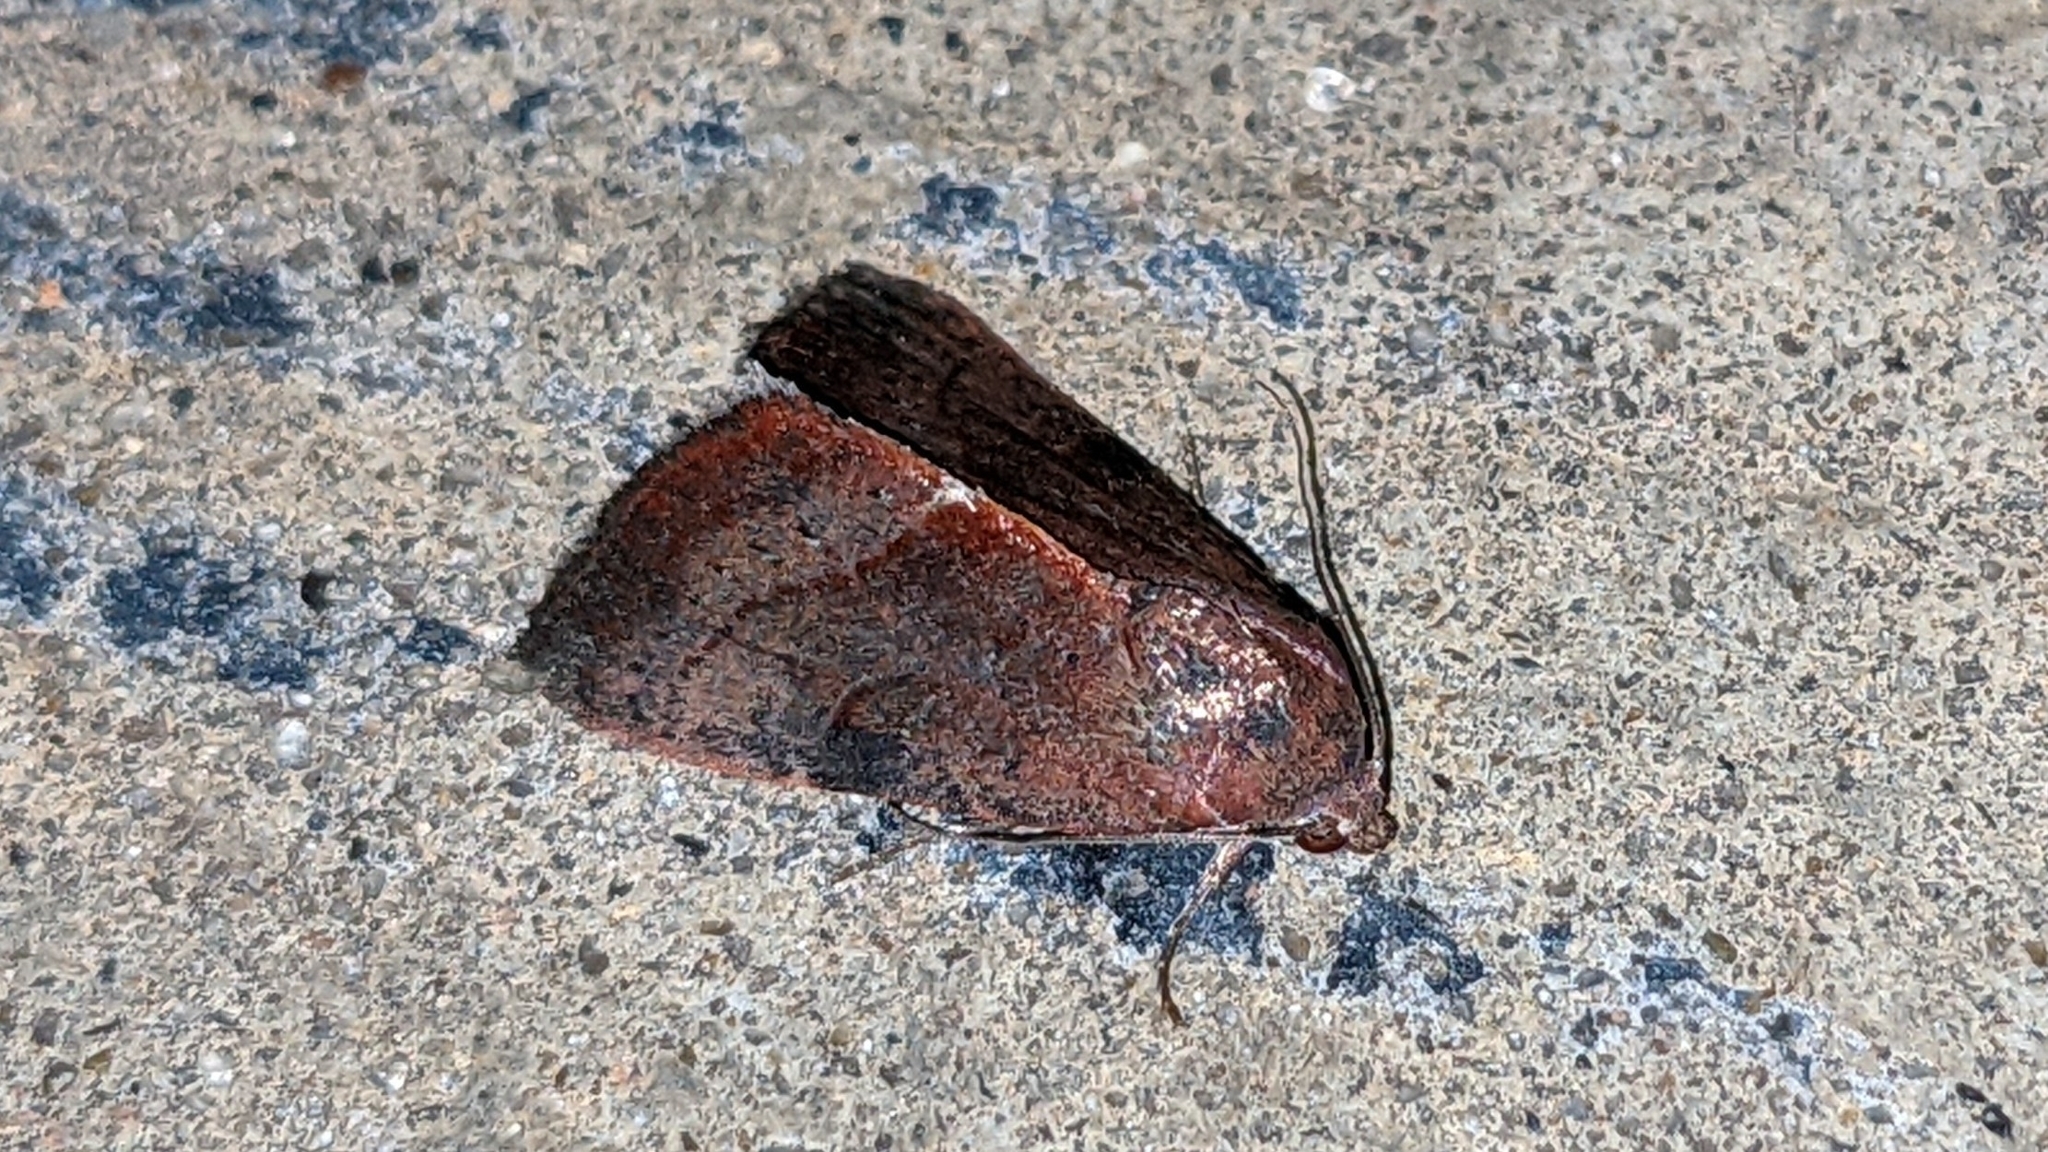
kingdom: Animalia
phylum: Arthropoda
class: Insecta
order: Lepidoptera
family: Noctuidae
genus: Galgula
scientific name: Galgula partita
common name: Wedgeling
